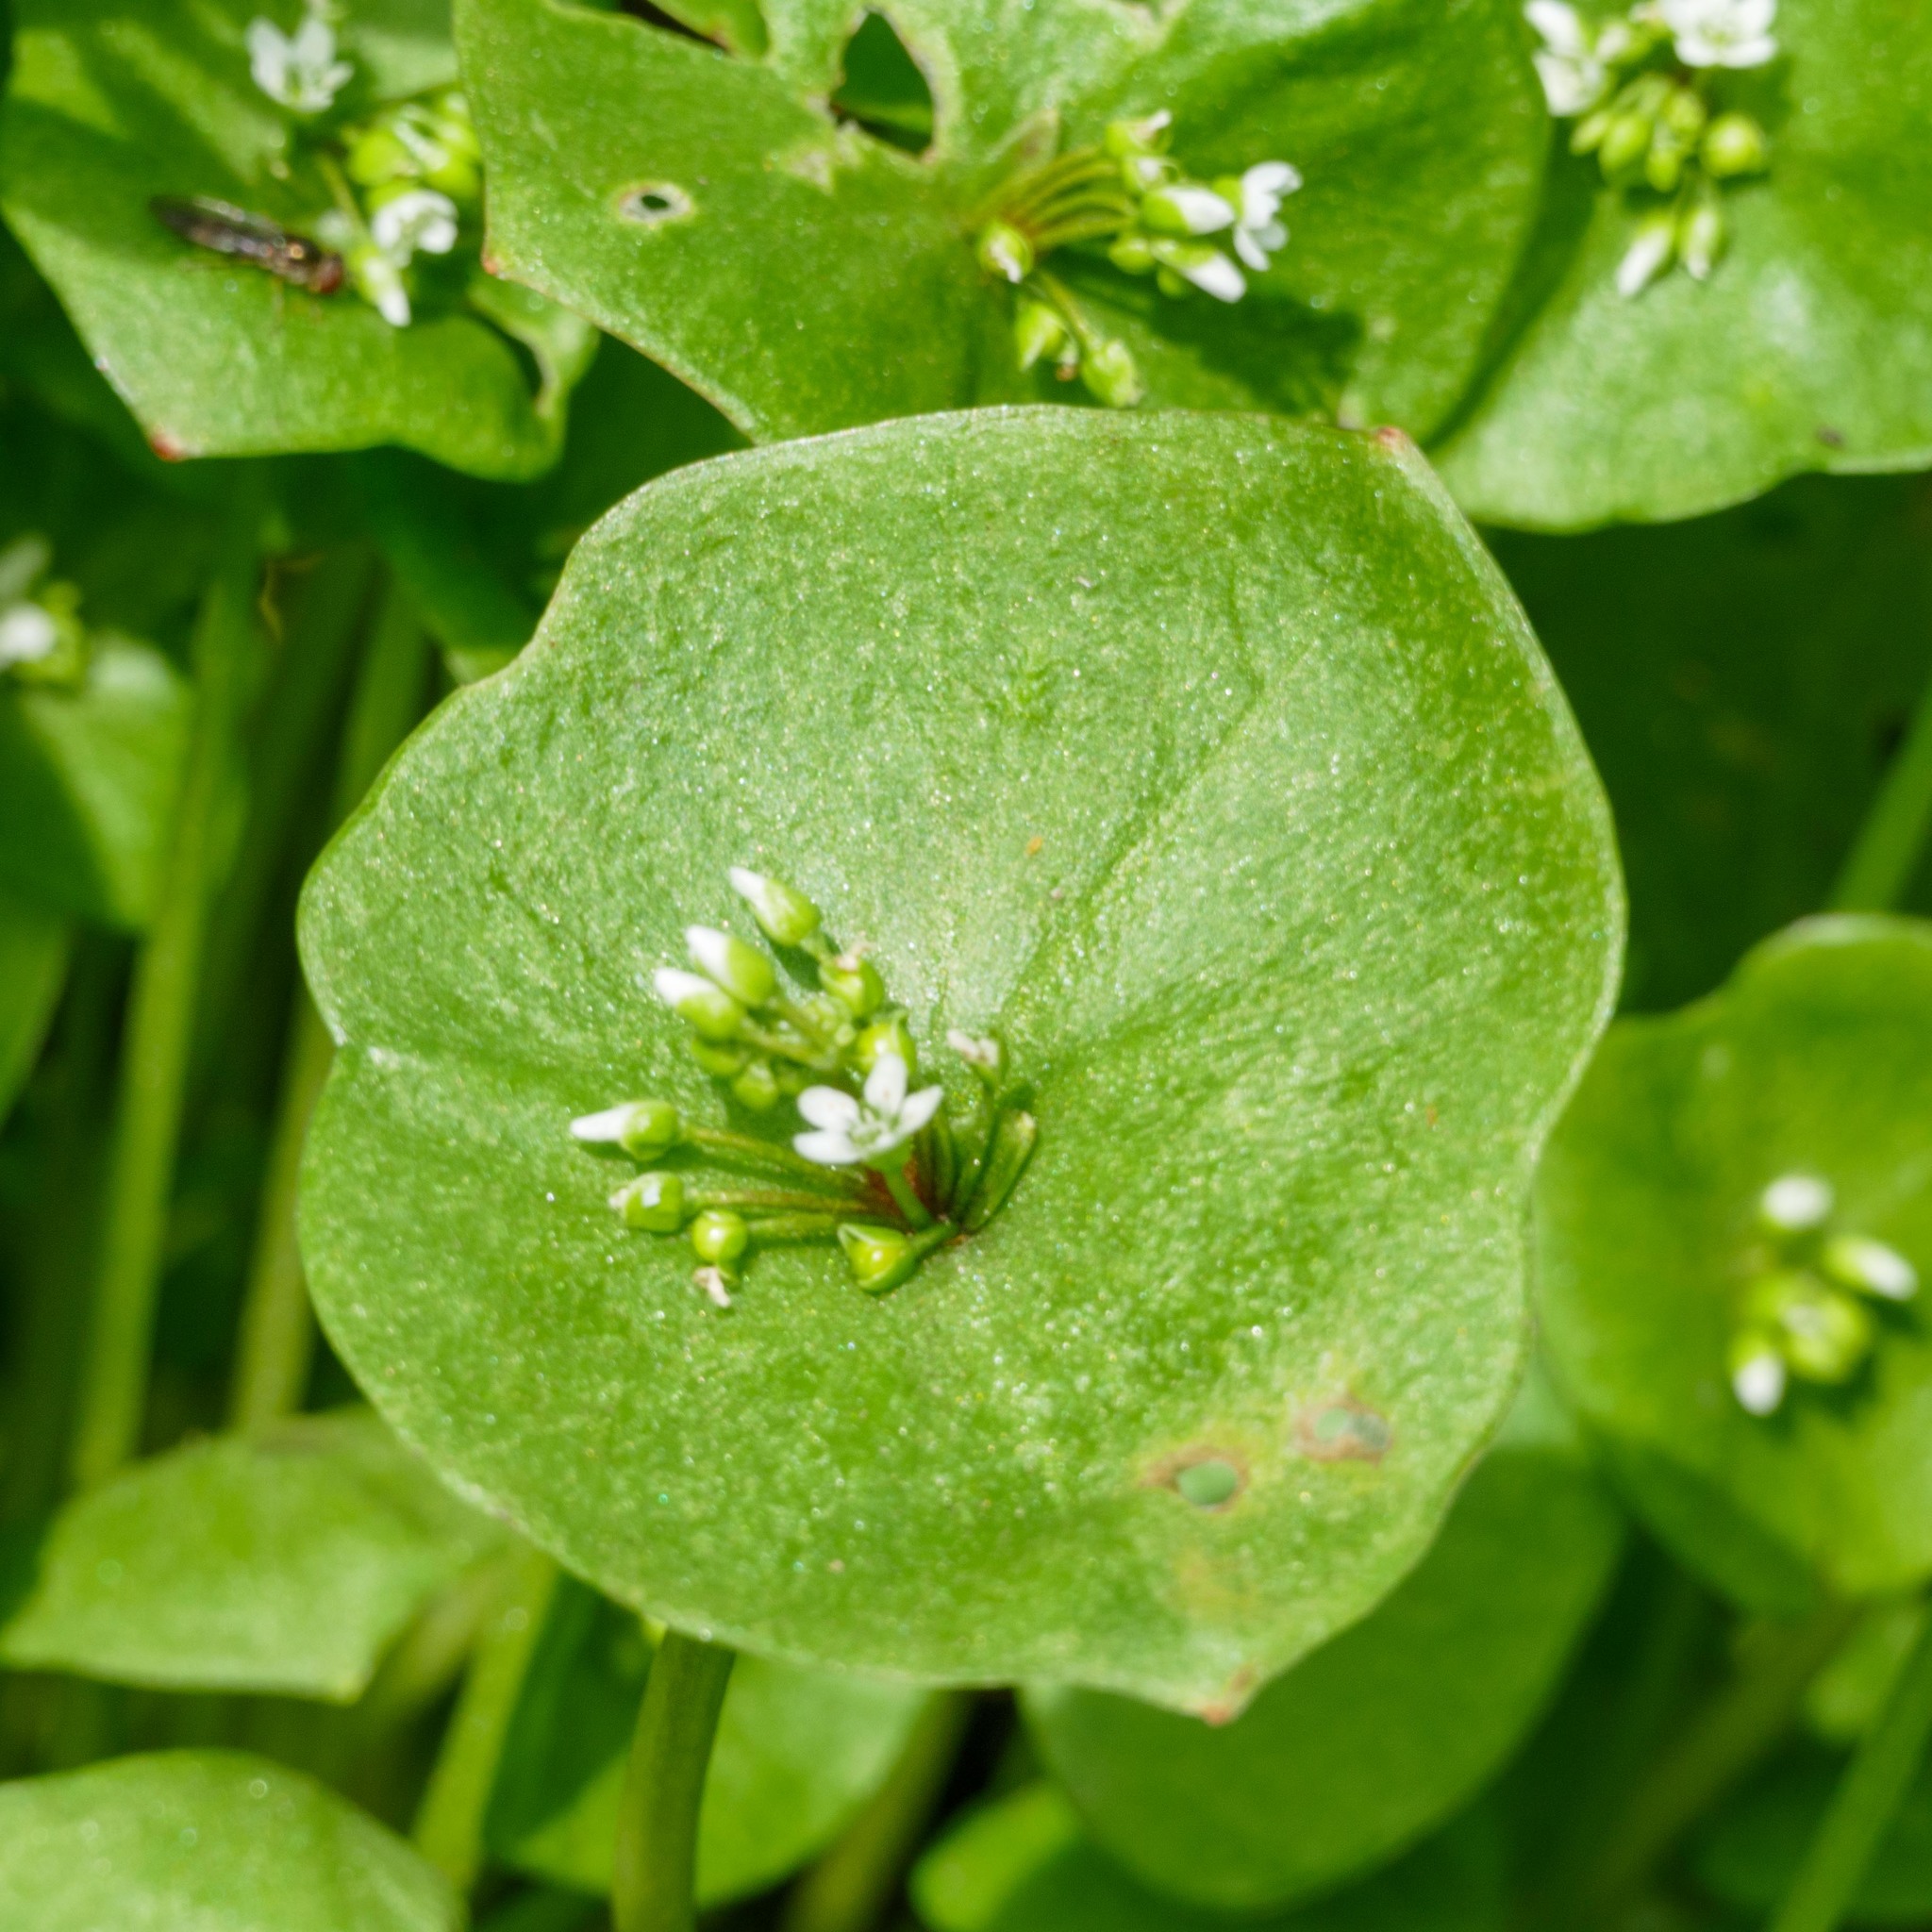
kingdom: Plantae
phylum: Tracheophyta
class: Magnoliopsida
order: Caryophyllales
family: Montiaceae
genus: Claytonia
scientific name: Claytonia perfoliata
